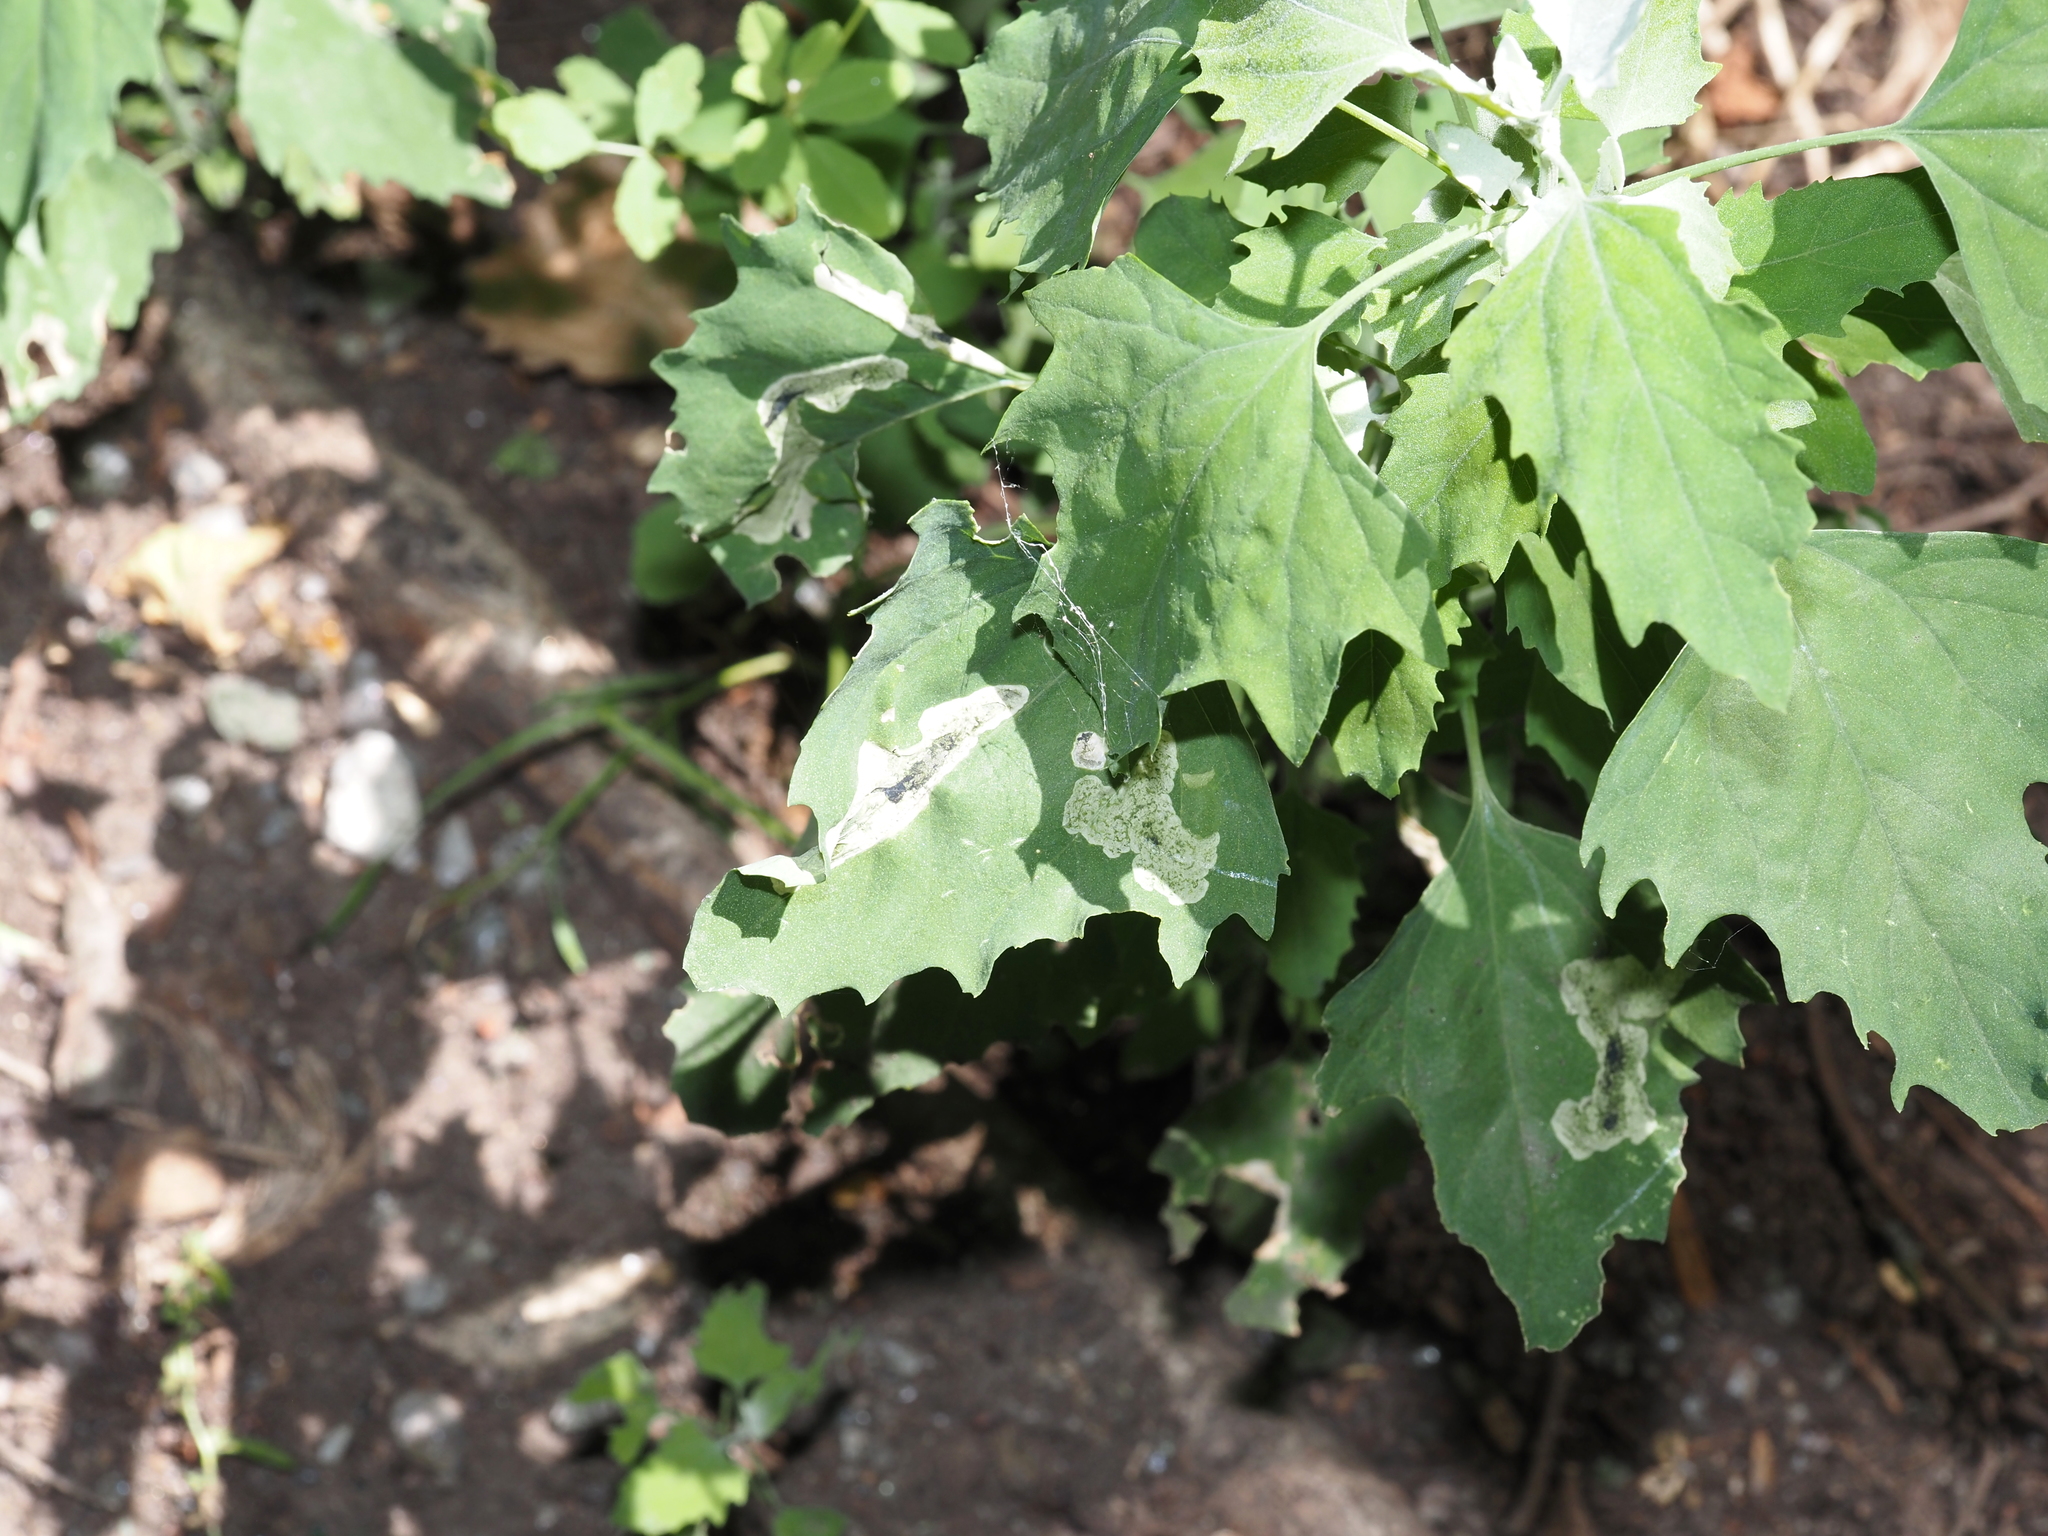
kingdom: Plantae
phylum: Tracheophyta
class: Magnoliopsida
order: Caryophyllales
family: Amaranthaceae
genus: Chenopodium
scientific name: Chenopodium album
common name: Fat-hen
